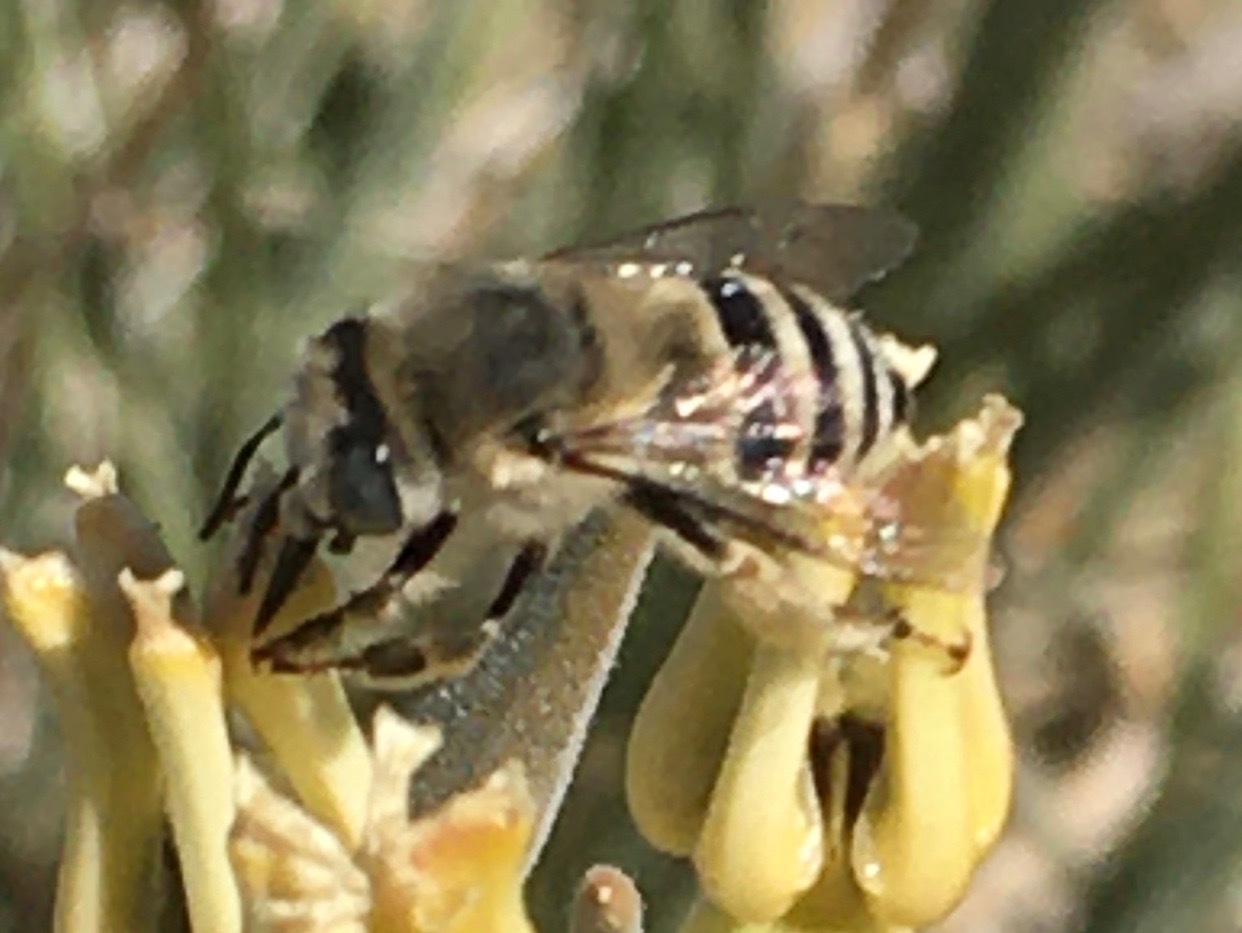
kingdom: Animalia
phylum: Arthropoda
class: Insecta
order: Hymenoptera
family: Apidae
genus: Anthophora
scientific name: Anthophora urbana
